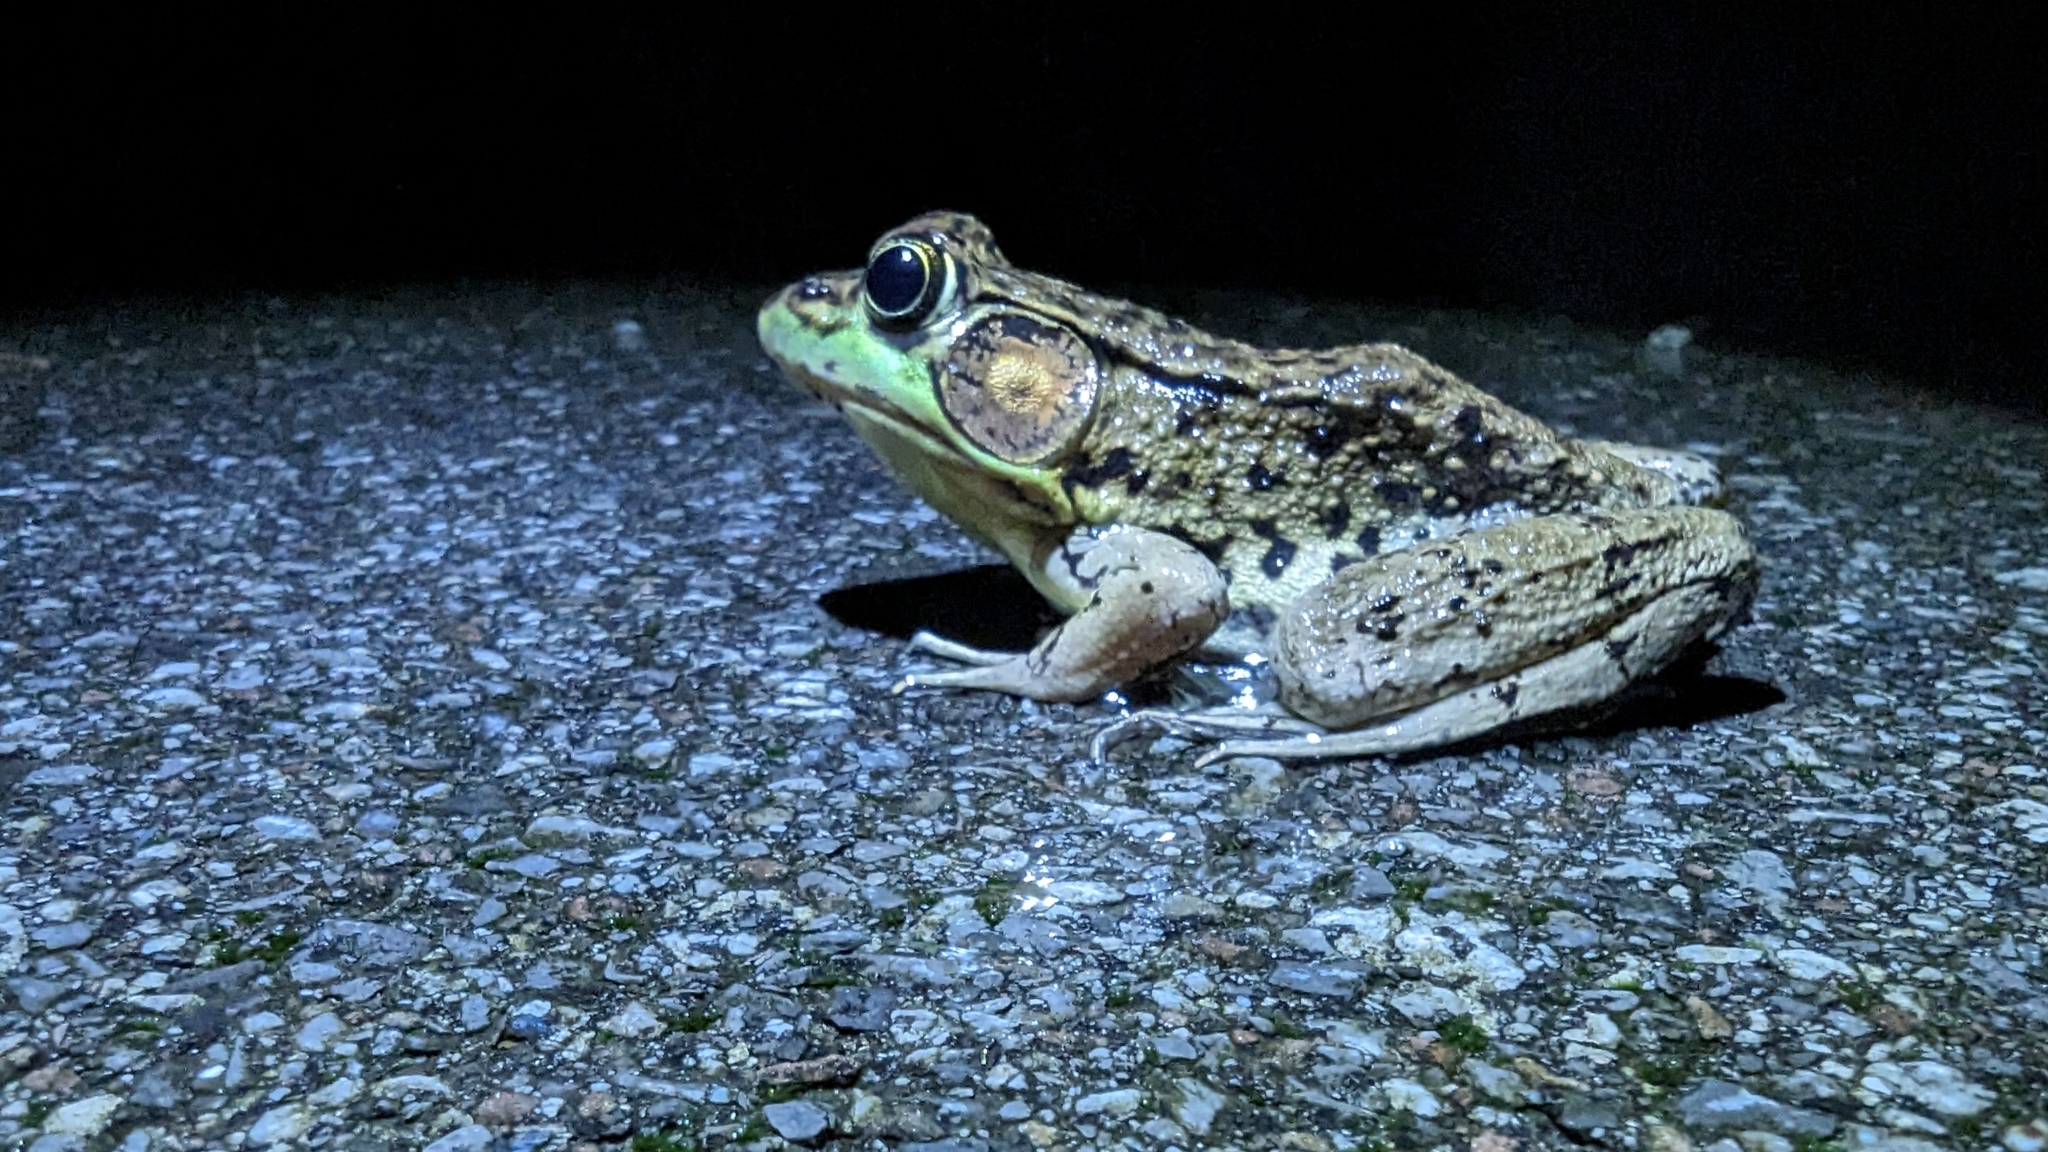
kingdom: Animalia
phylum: Chordata
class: Amphibia
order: Anura
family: Ranidae
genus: Lithobates
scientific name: Lithobates clamitans
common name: Green frog
